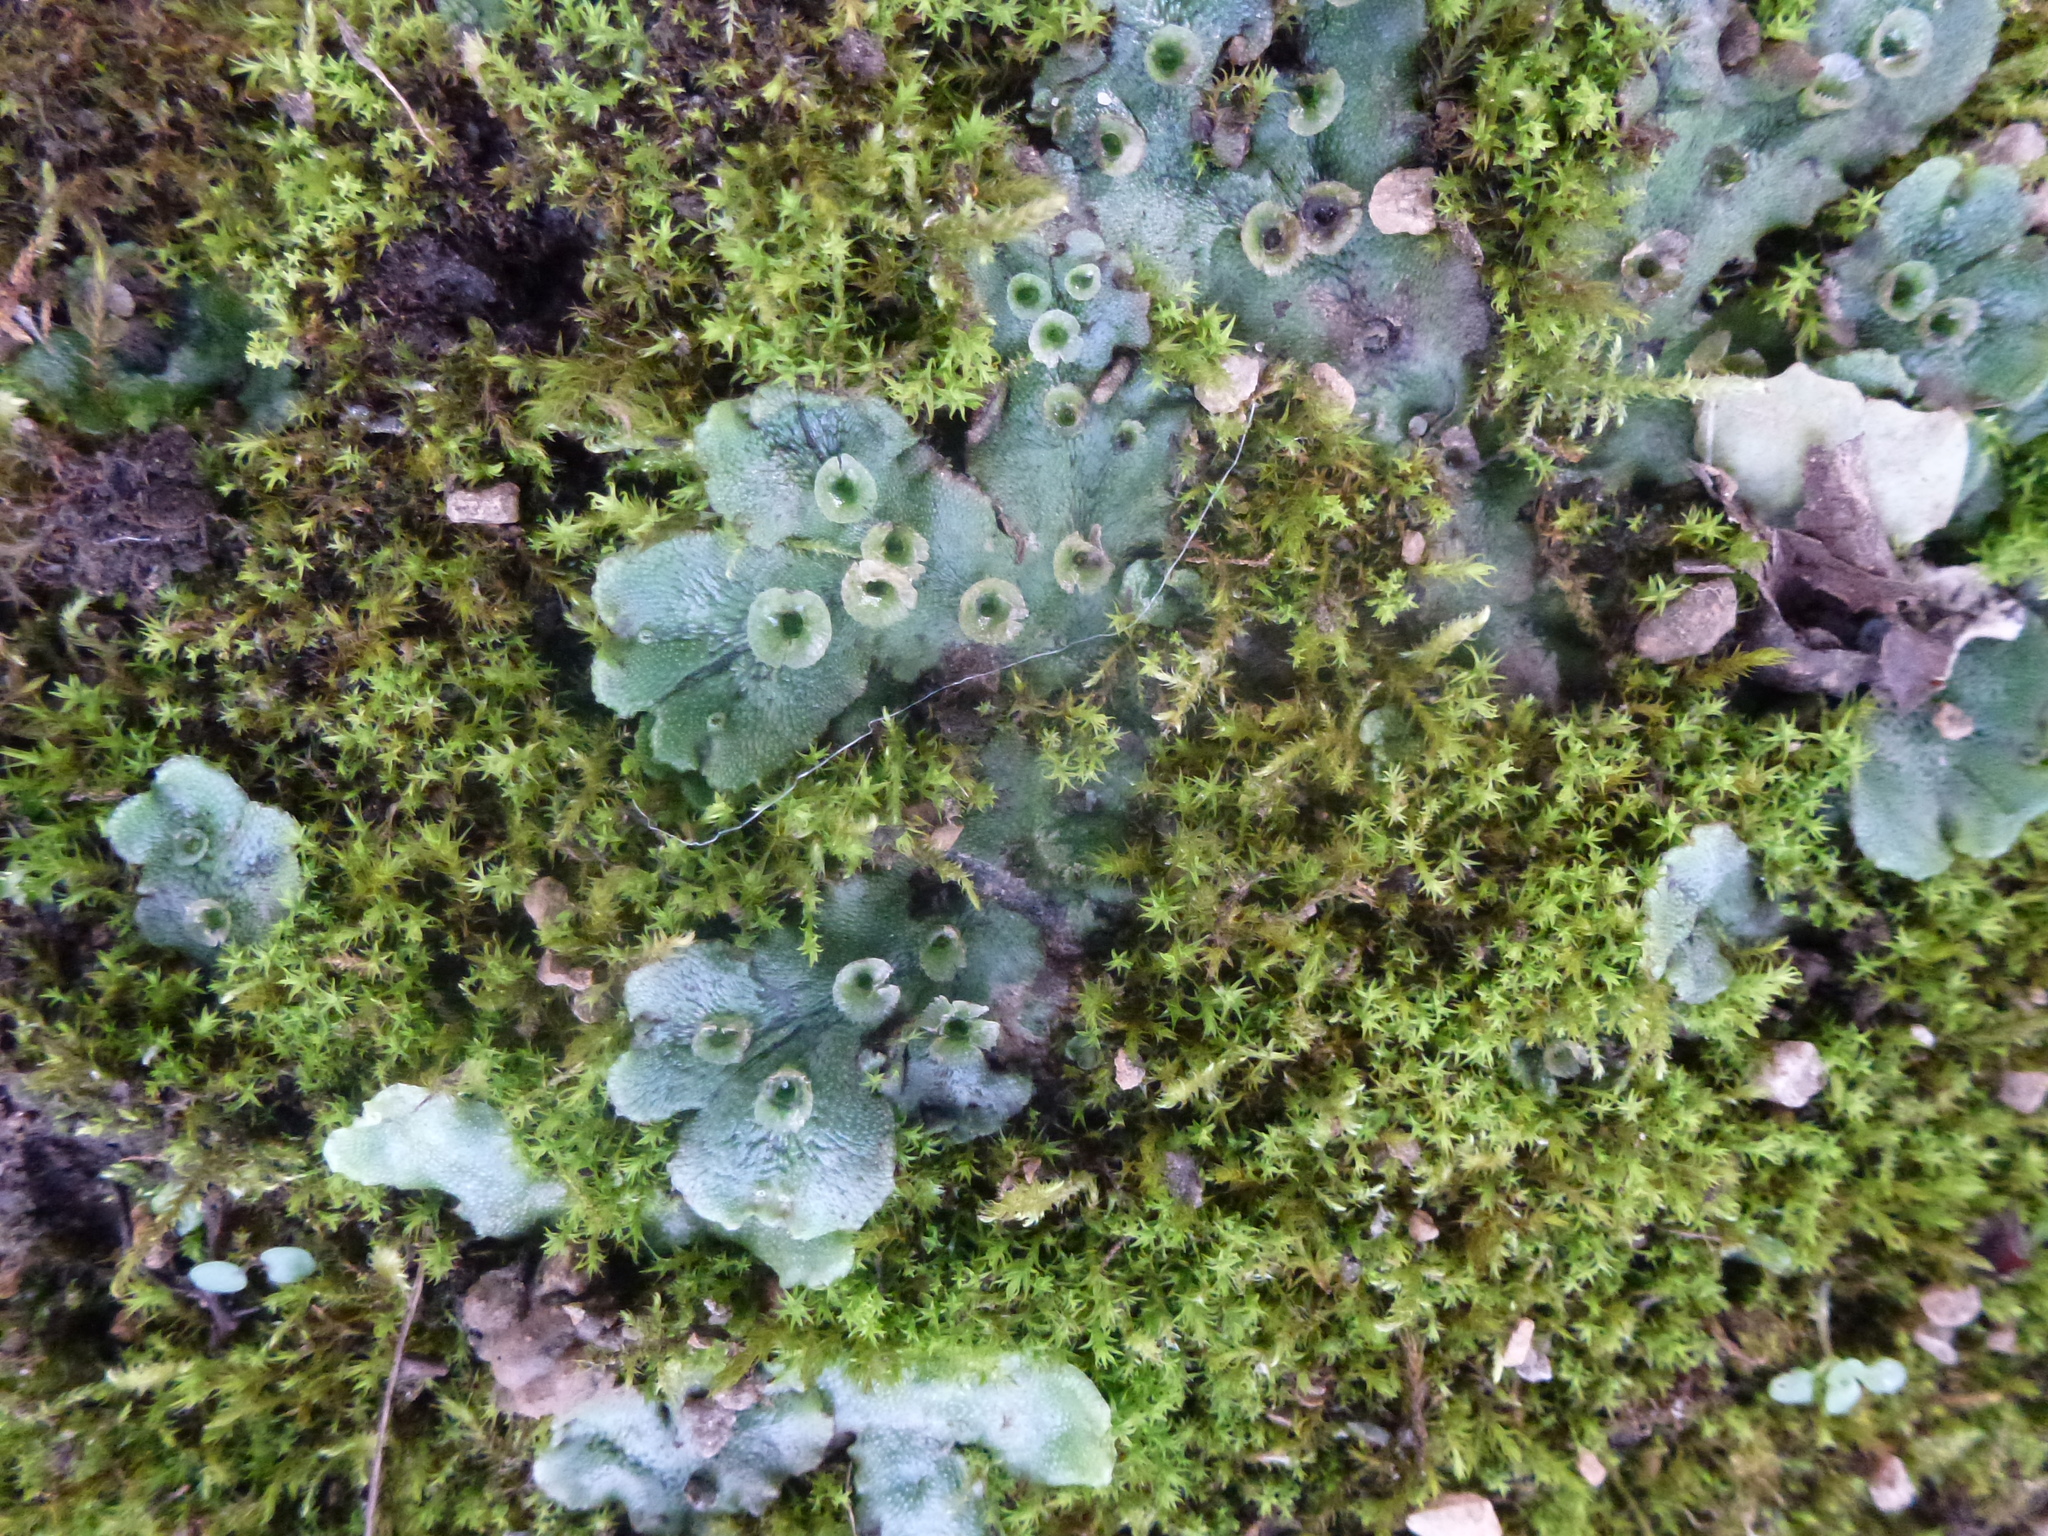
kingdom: Plantae
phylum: Marchantiophyta
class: Marchantiopsida
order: Marchantiales
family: Marchantiaceae
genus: Marchantia
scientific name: Marchantia polymorpha
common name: Common liverwort
